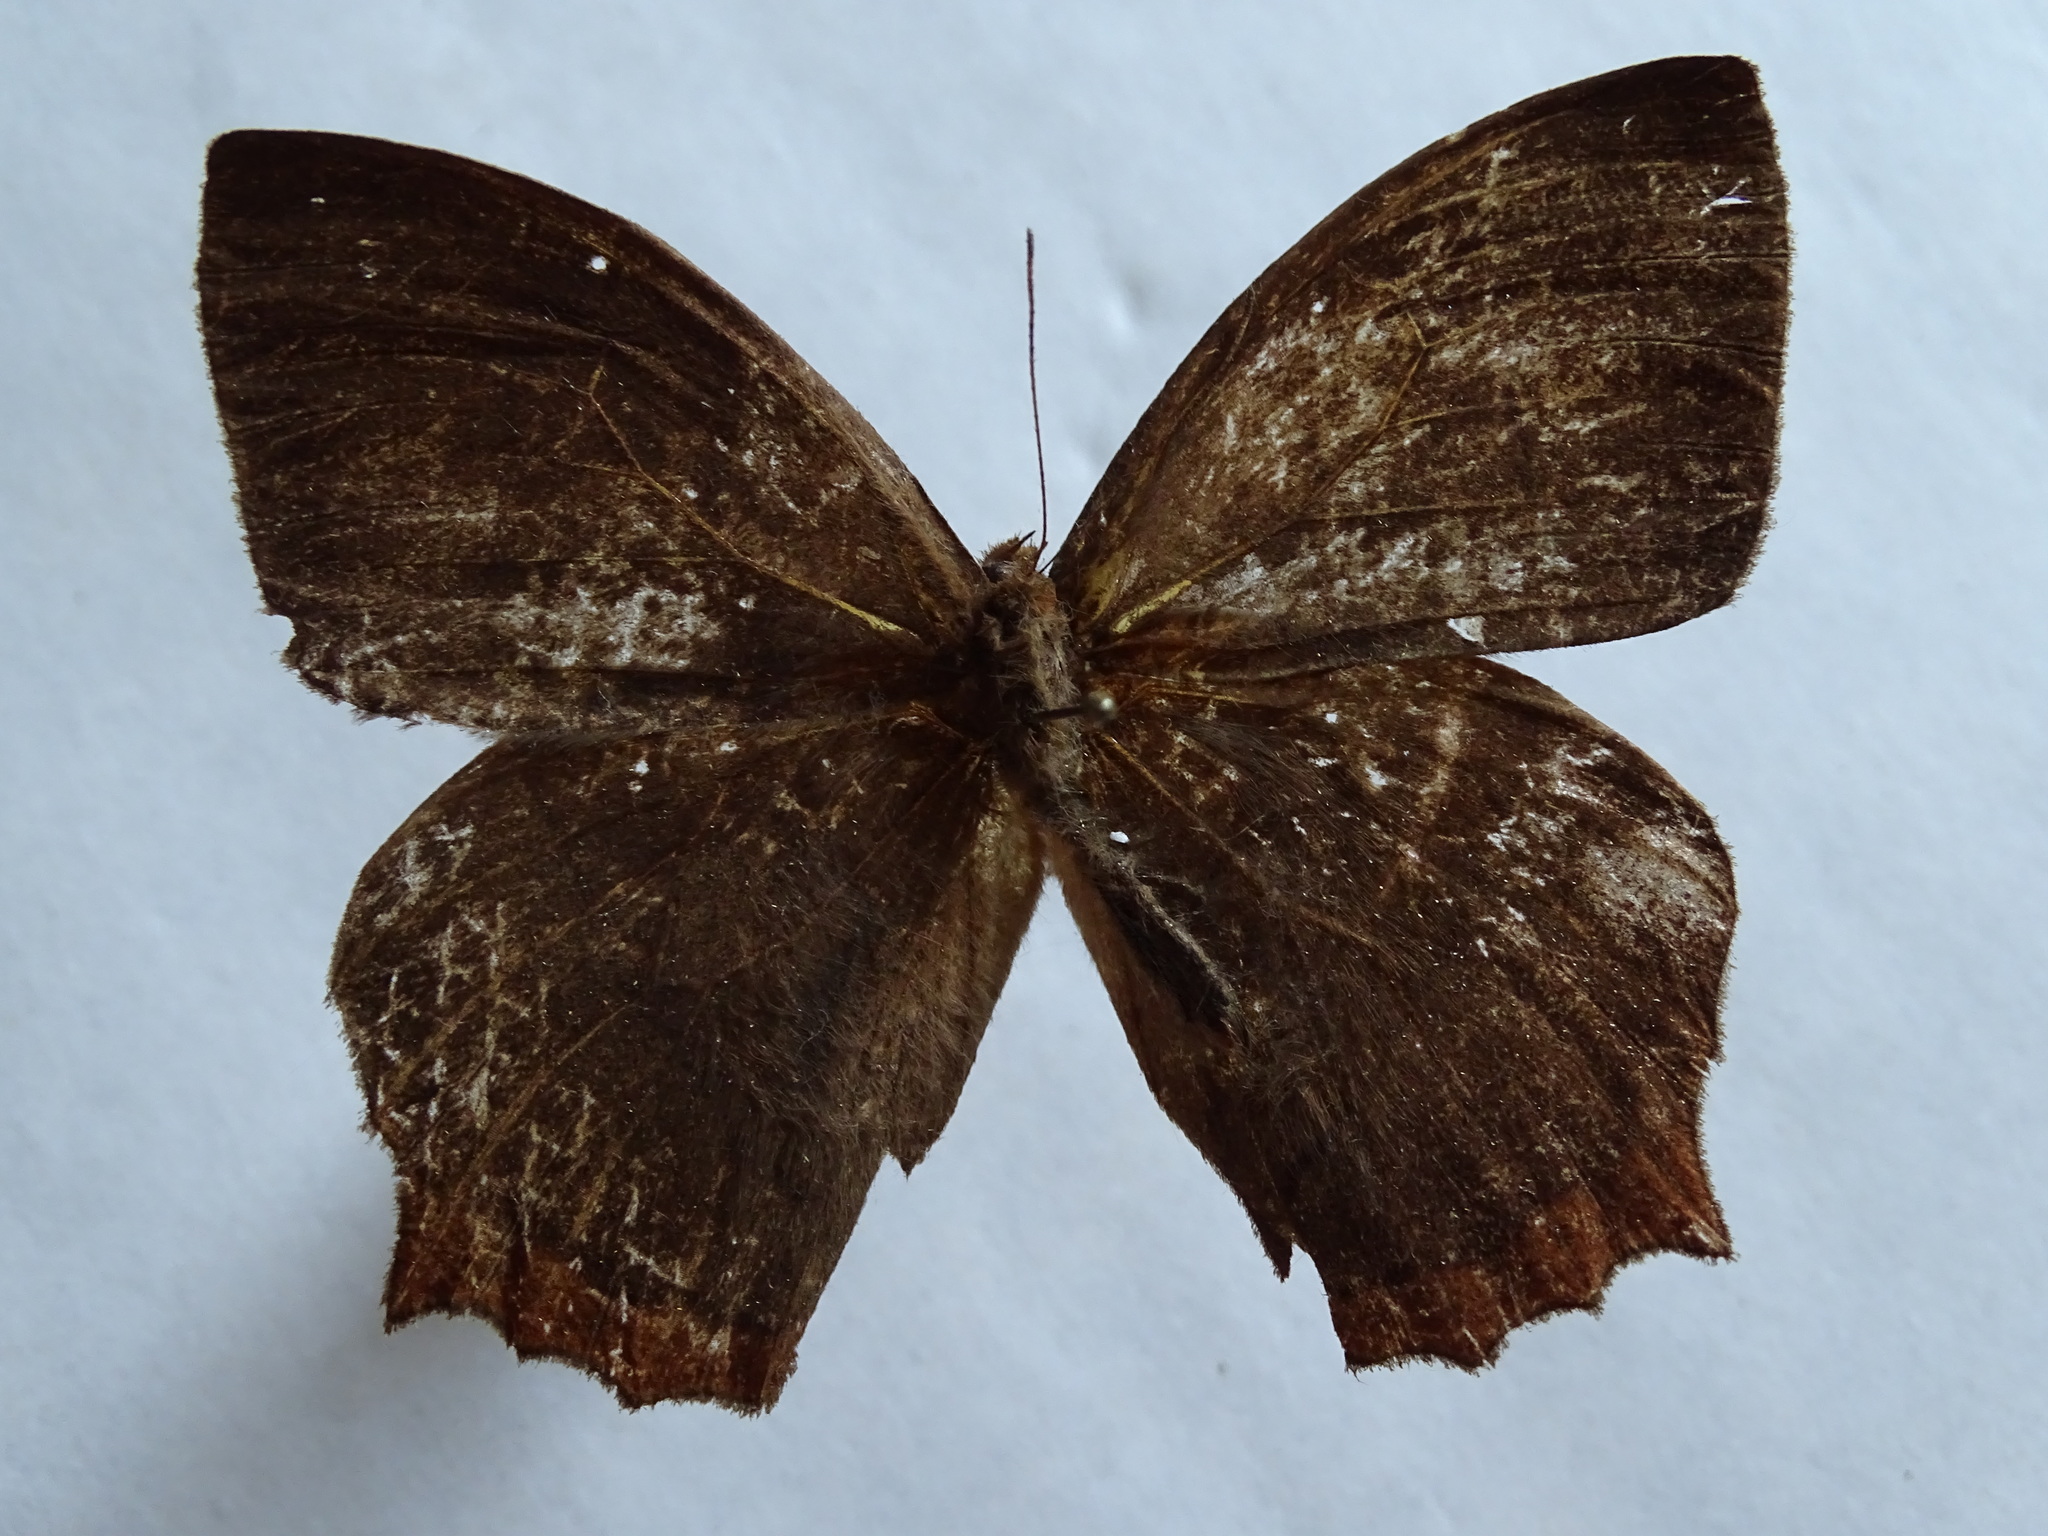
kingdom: Animalia
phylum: Arthropoda
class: Insecta
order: Lepidoptera
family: Nymphalidae
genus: Taygetis
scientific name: Taygetis virgilia
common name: Stub-tailed satyr
